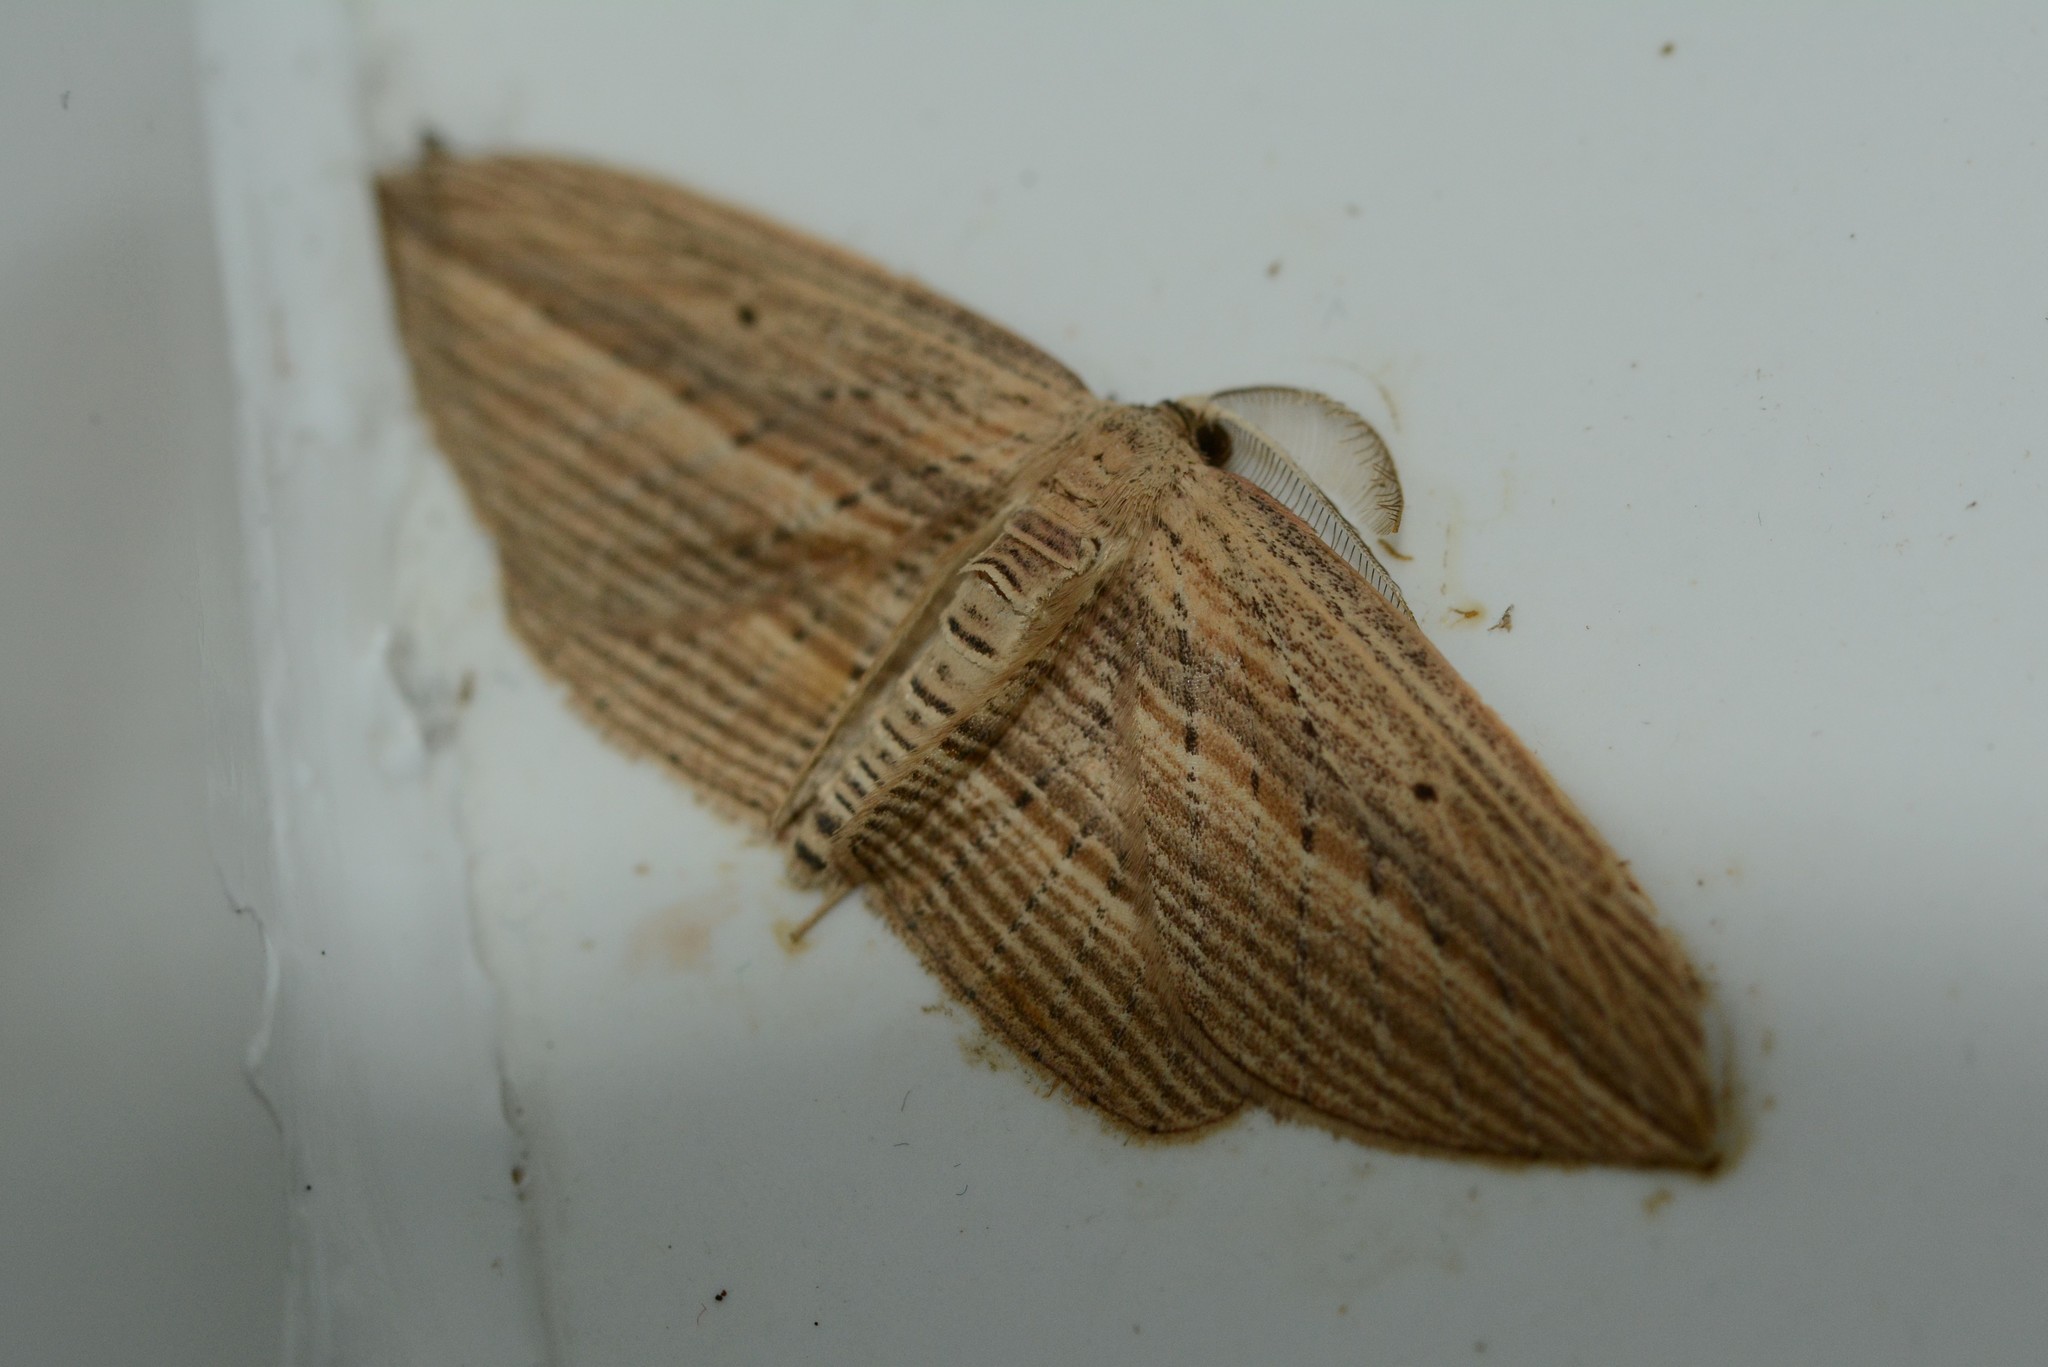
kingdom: Animalia
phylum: Arthropoda
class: Insecta
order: Lepidoptera
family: Geometridae
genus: Epiphryne
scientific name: Epiphryne verriculata
